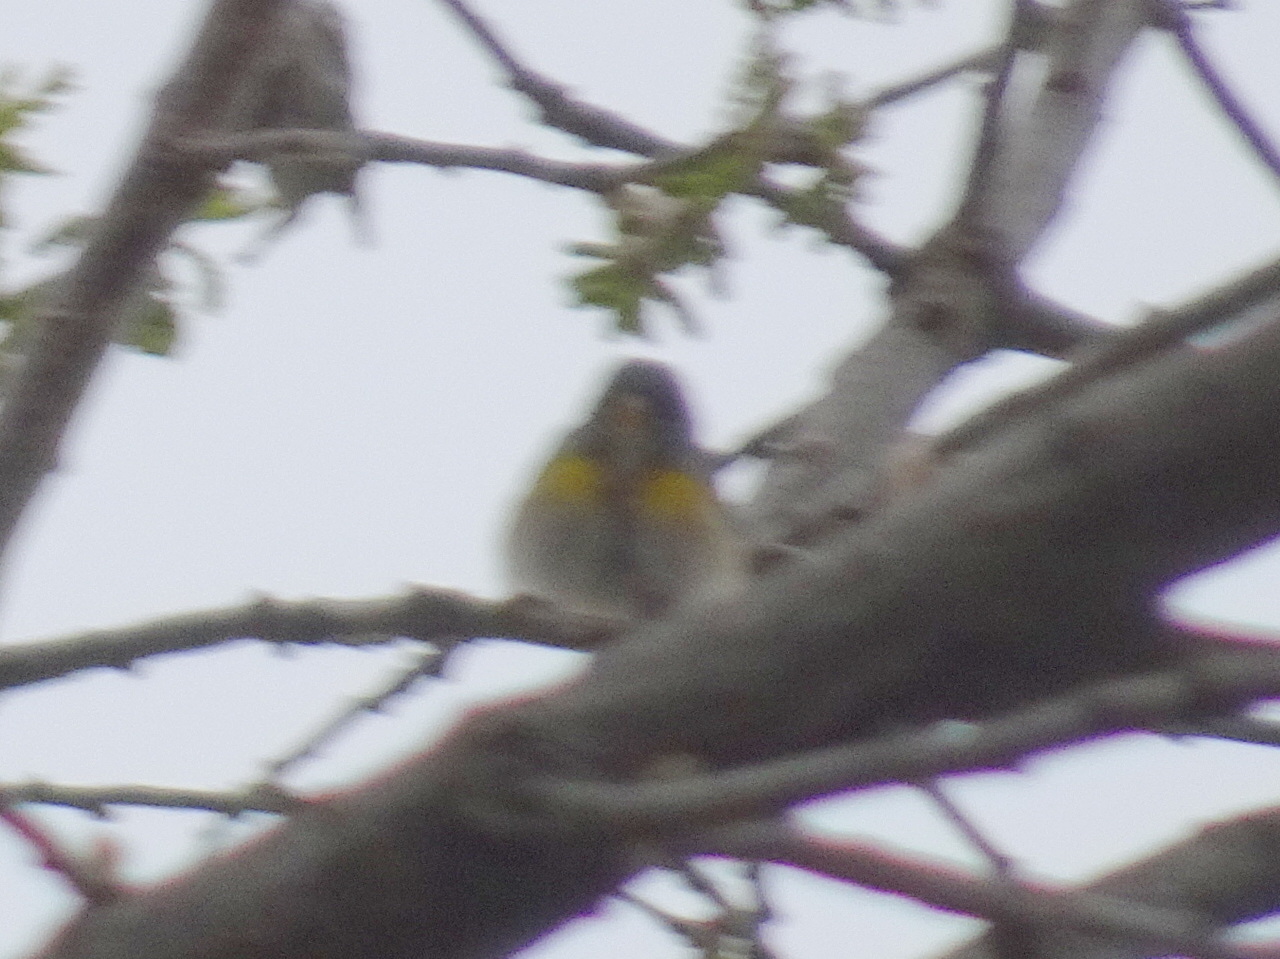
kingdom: Animalia
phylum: Chordata
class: Aves
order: Passeriformes
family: Parulidae
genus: Setophaga
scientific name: Setophaga americana
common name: Northern parula
